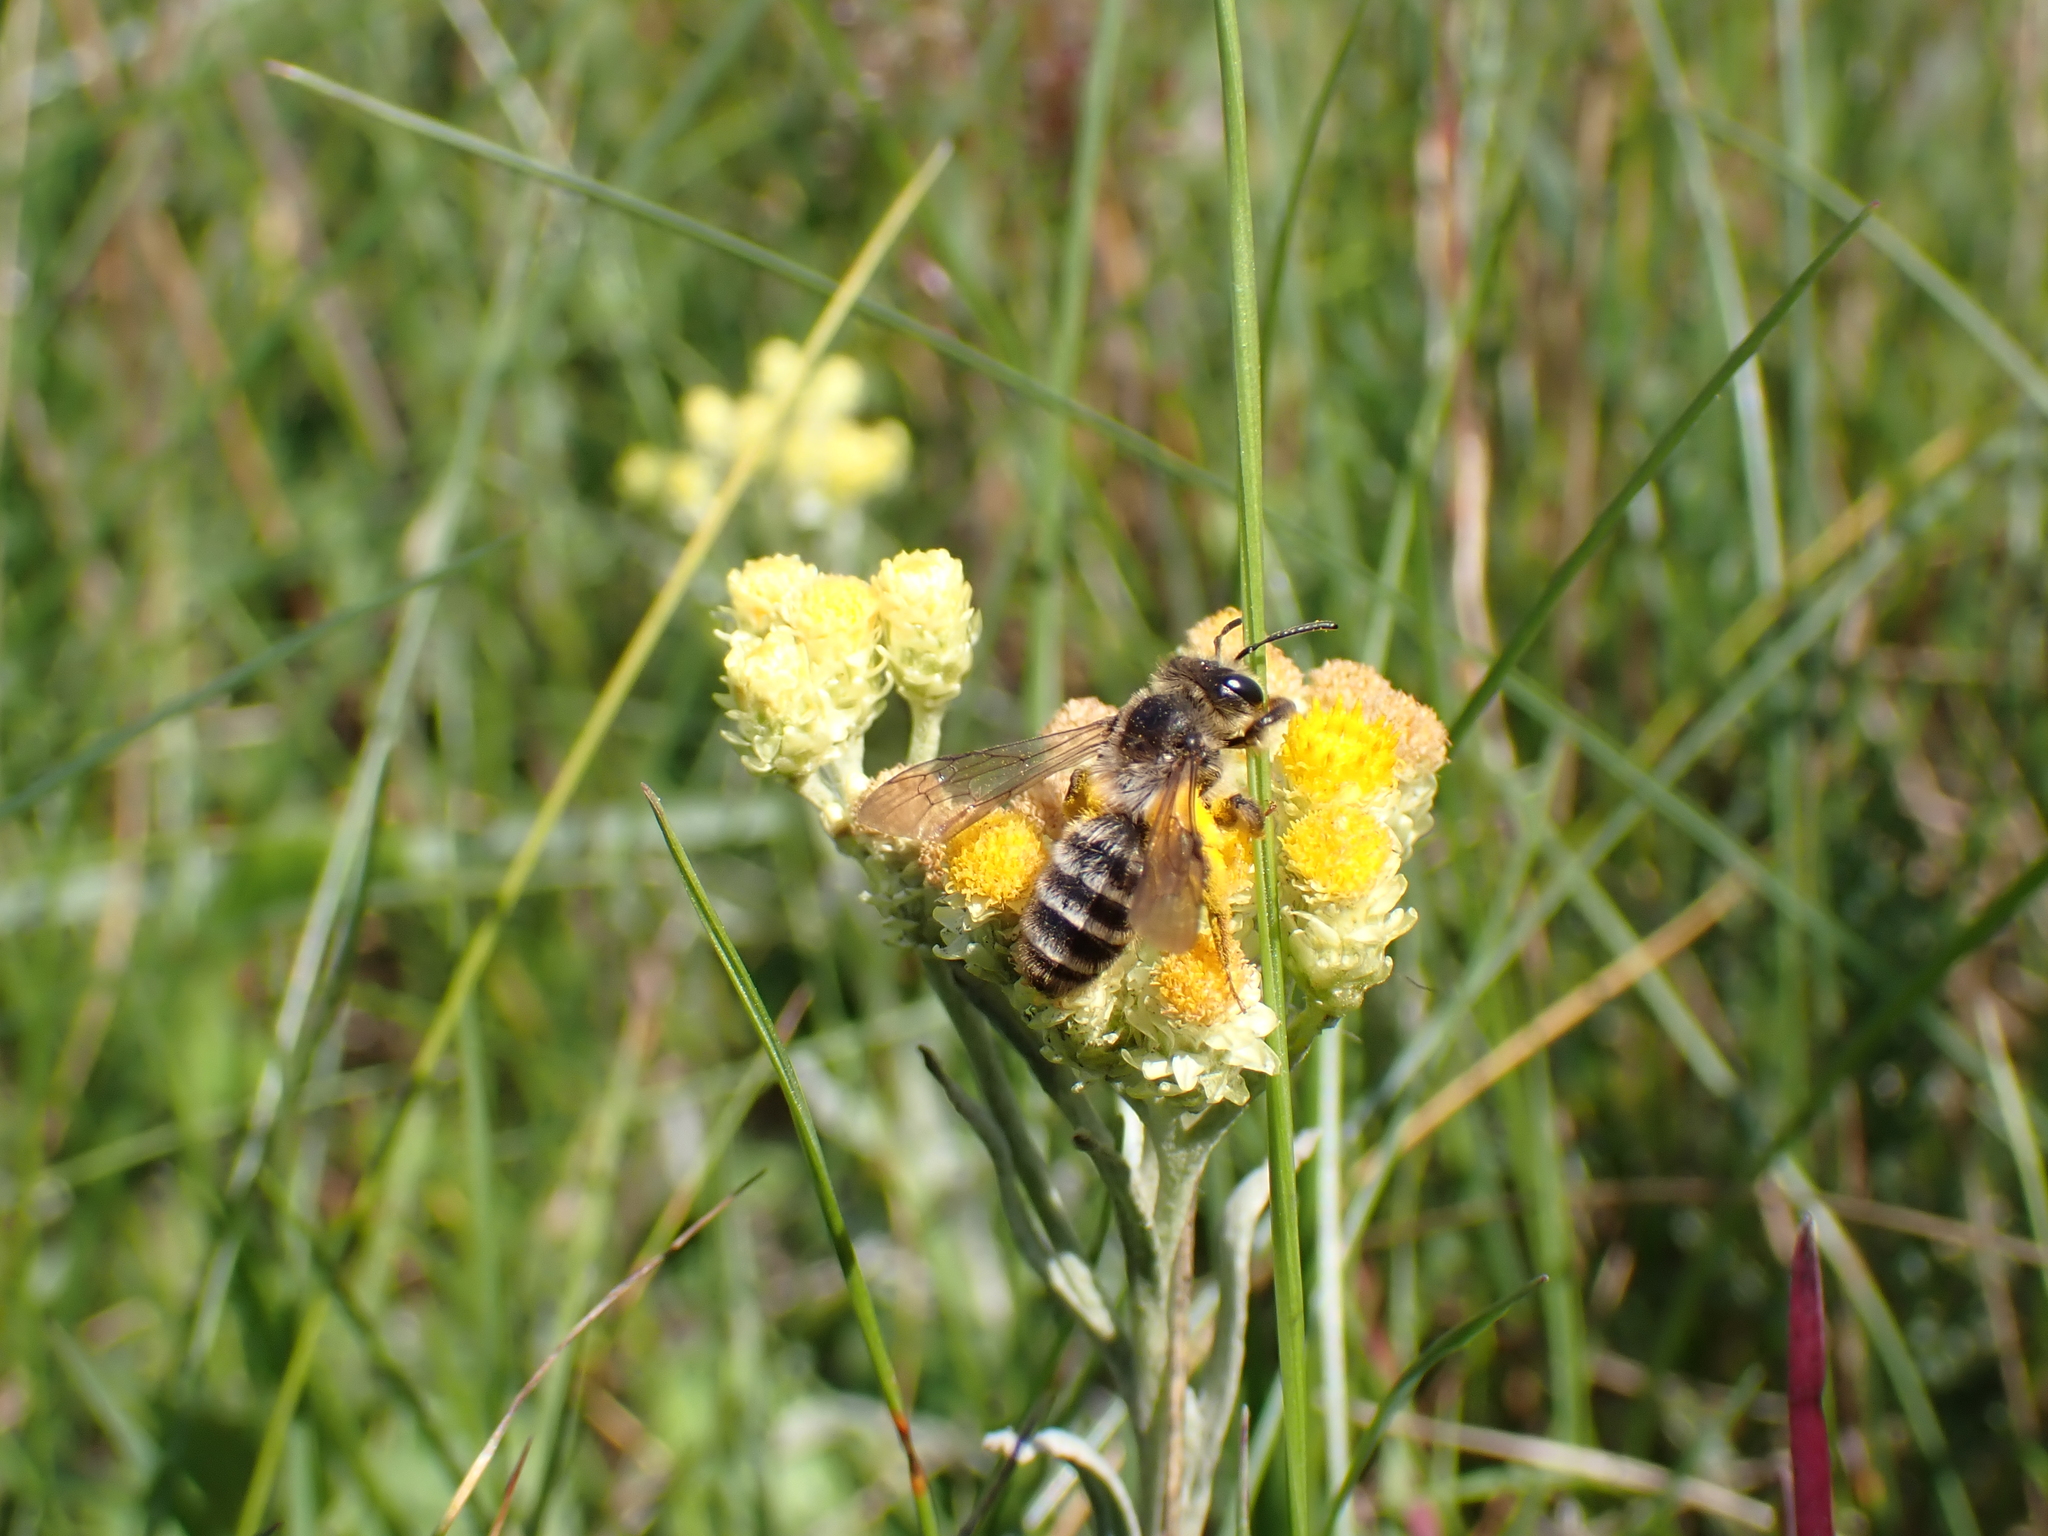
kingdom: Animalia
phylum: Arthropoda
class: Insecta
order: Hymenoptera
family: Andrenidae
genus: Andrena
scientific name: Andrena denticulata
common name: Grey-banded mining bee
